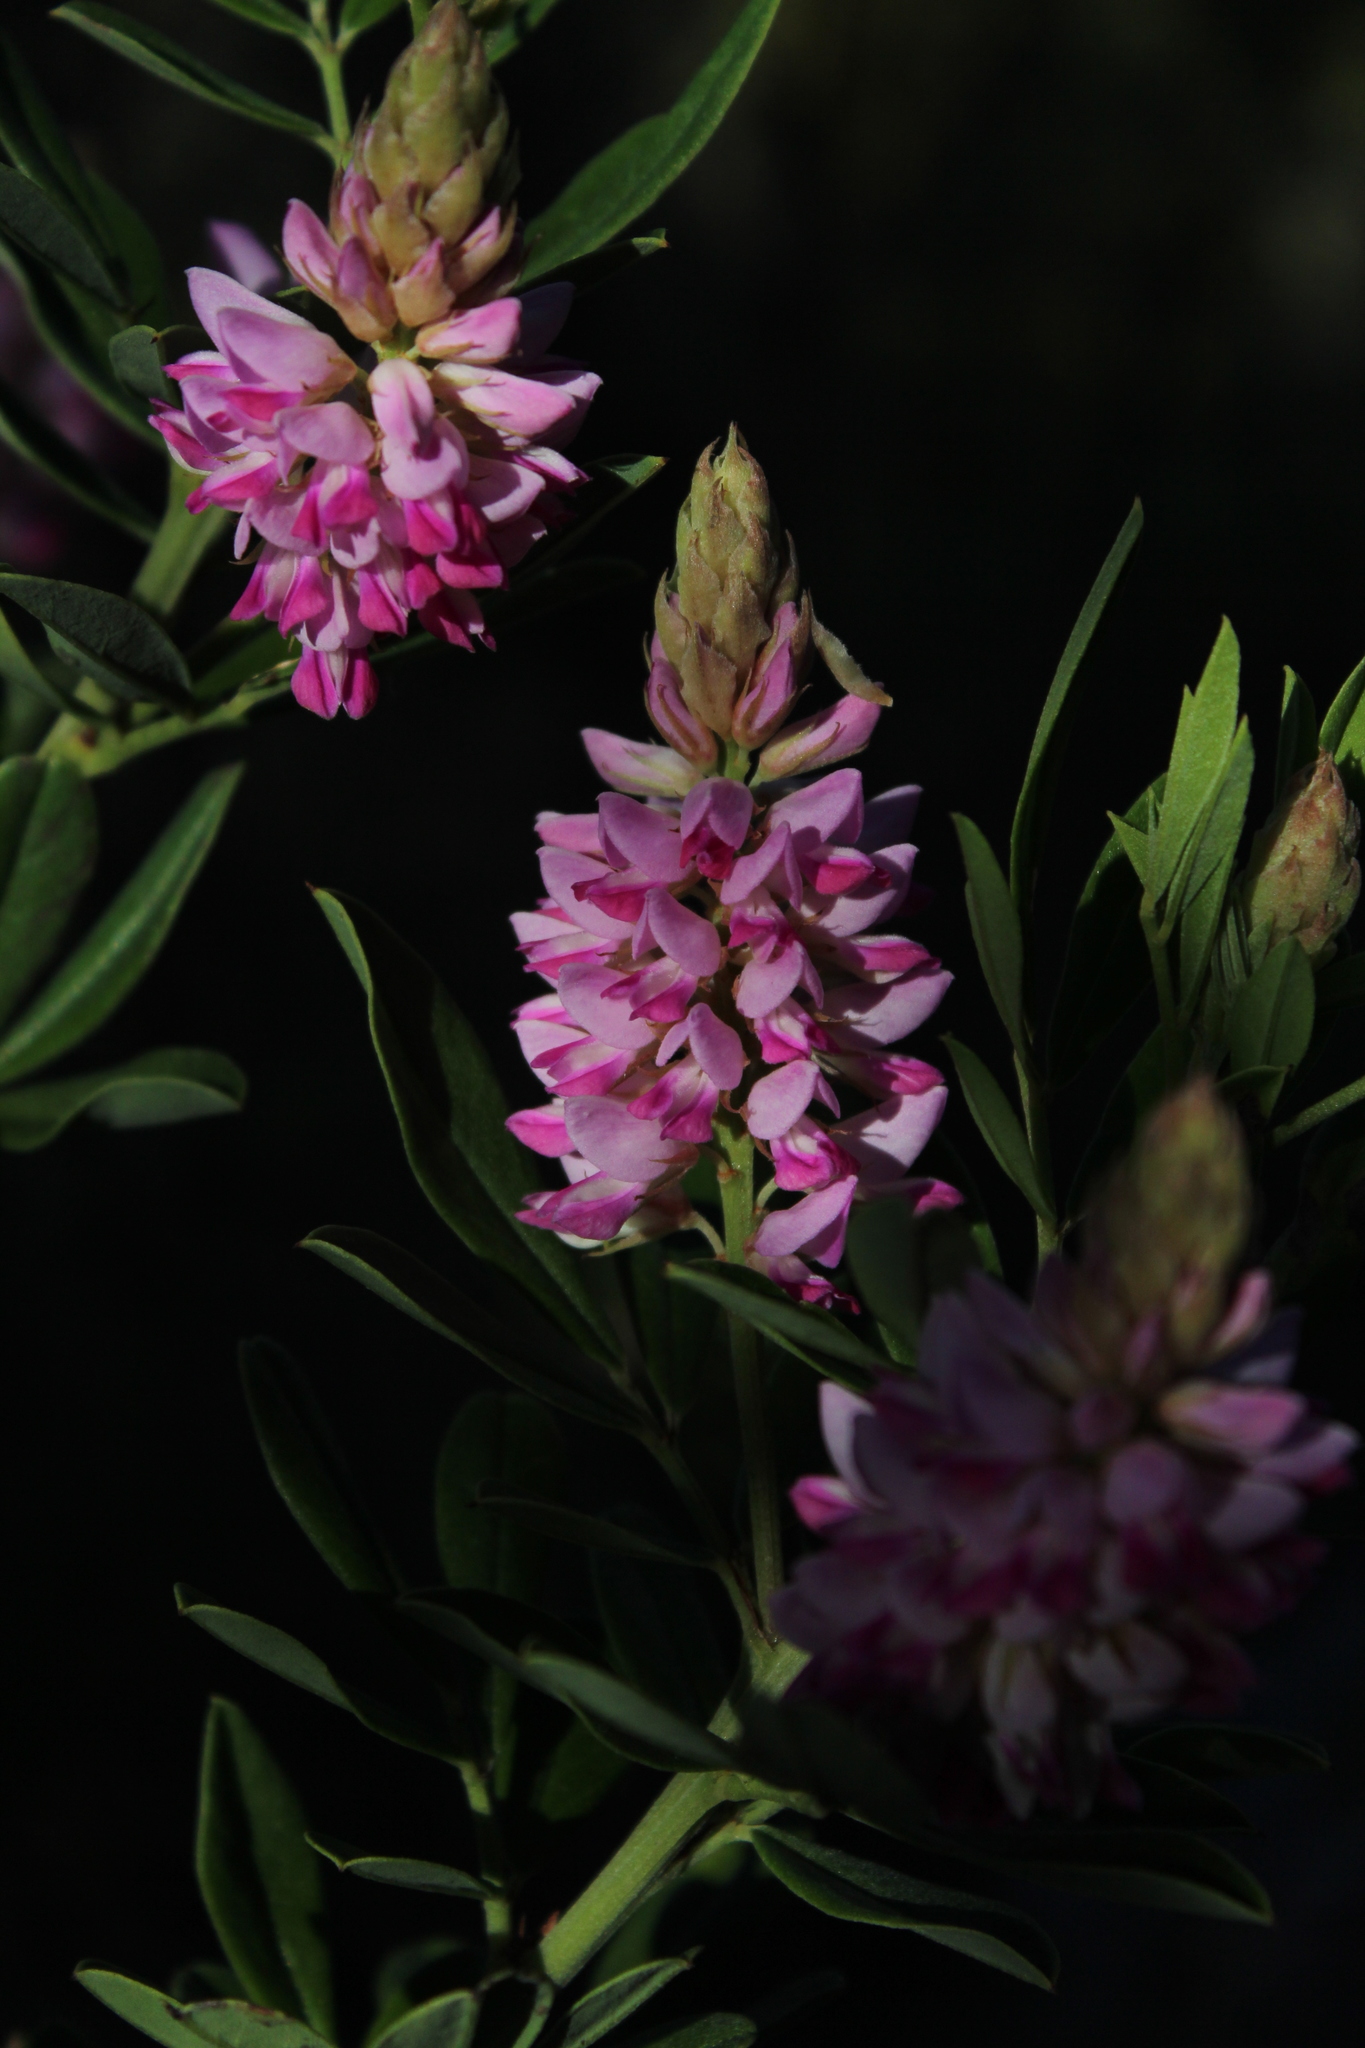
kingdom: Plantae
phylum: Tracheophyta
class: Magnoliopsida
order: Fabales
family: Fabaceae
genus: Indigofera
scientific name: Indigofera cytisoides
